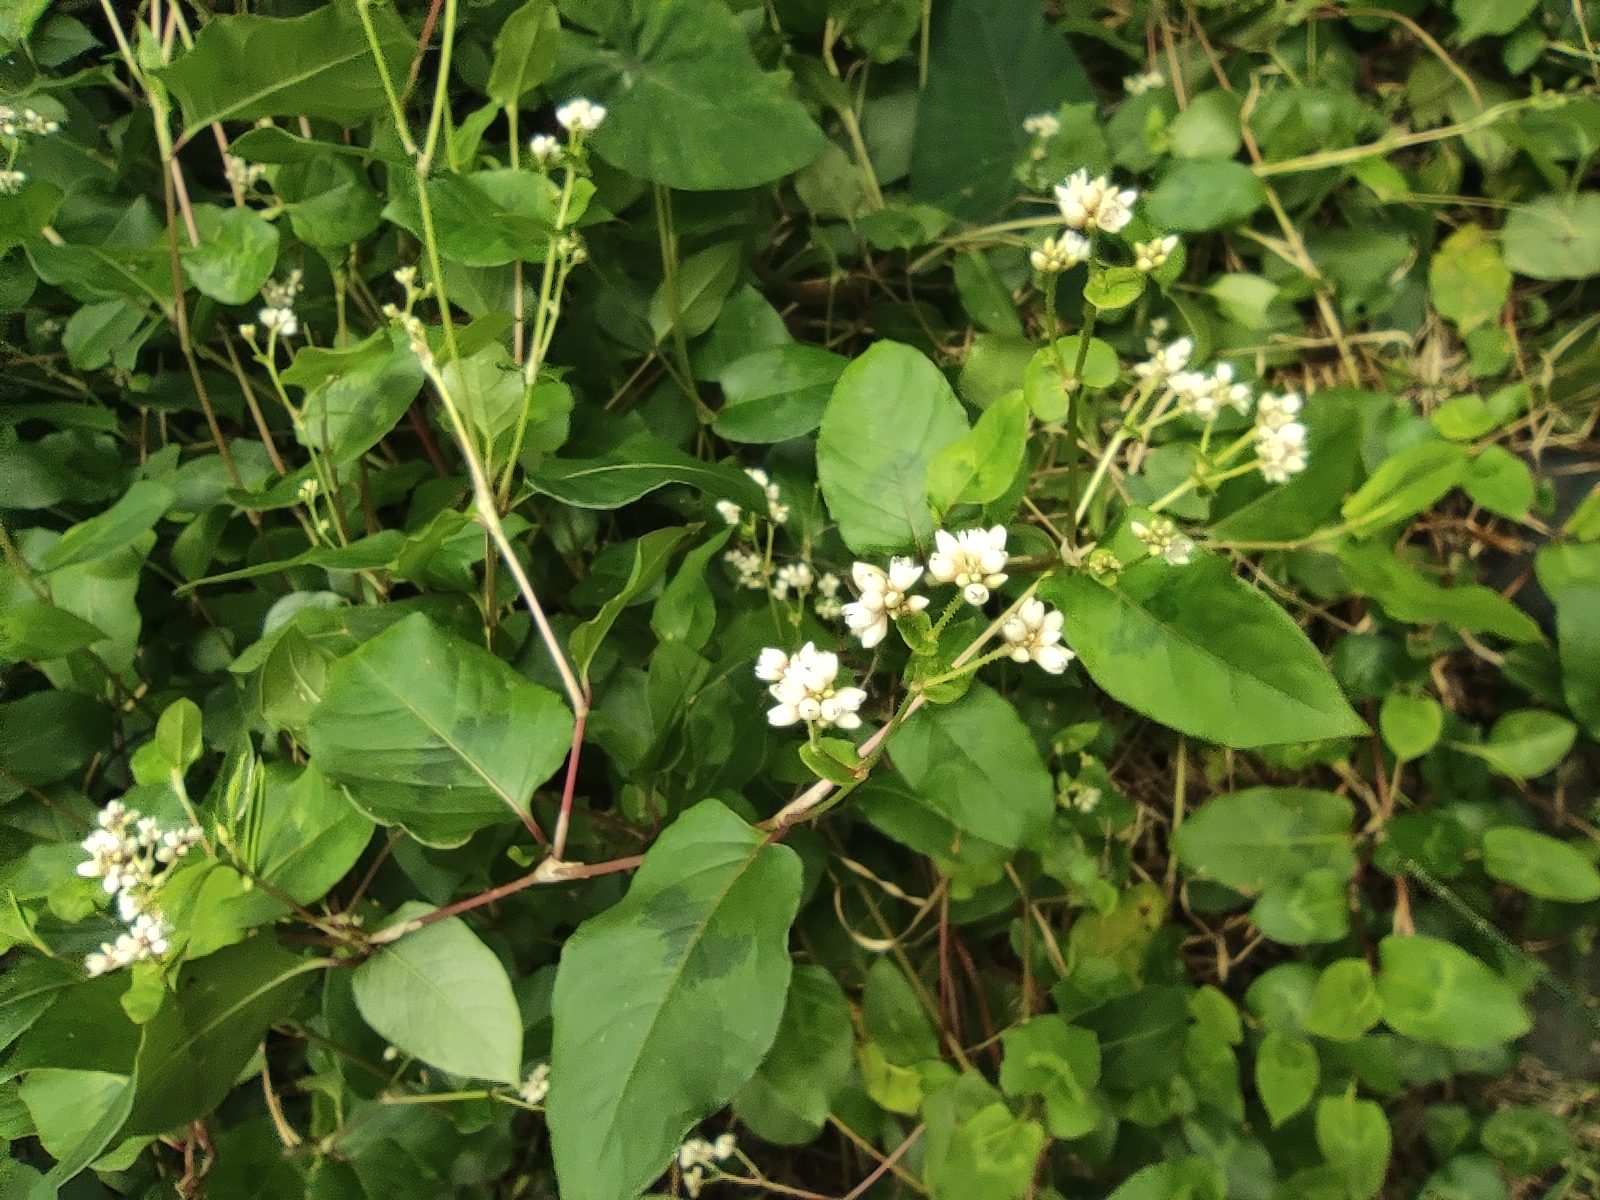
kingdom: Plantae
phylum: Tracheophyta
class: Magnoliopsida
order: Caryophyllales
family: Polygonaceae
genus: Persicaria
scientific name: Persicaria chinensis
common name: Chinese knotweed
